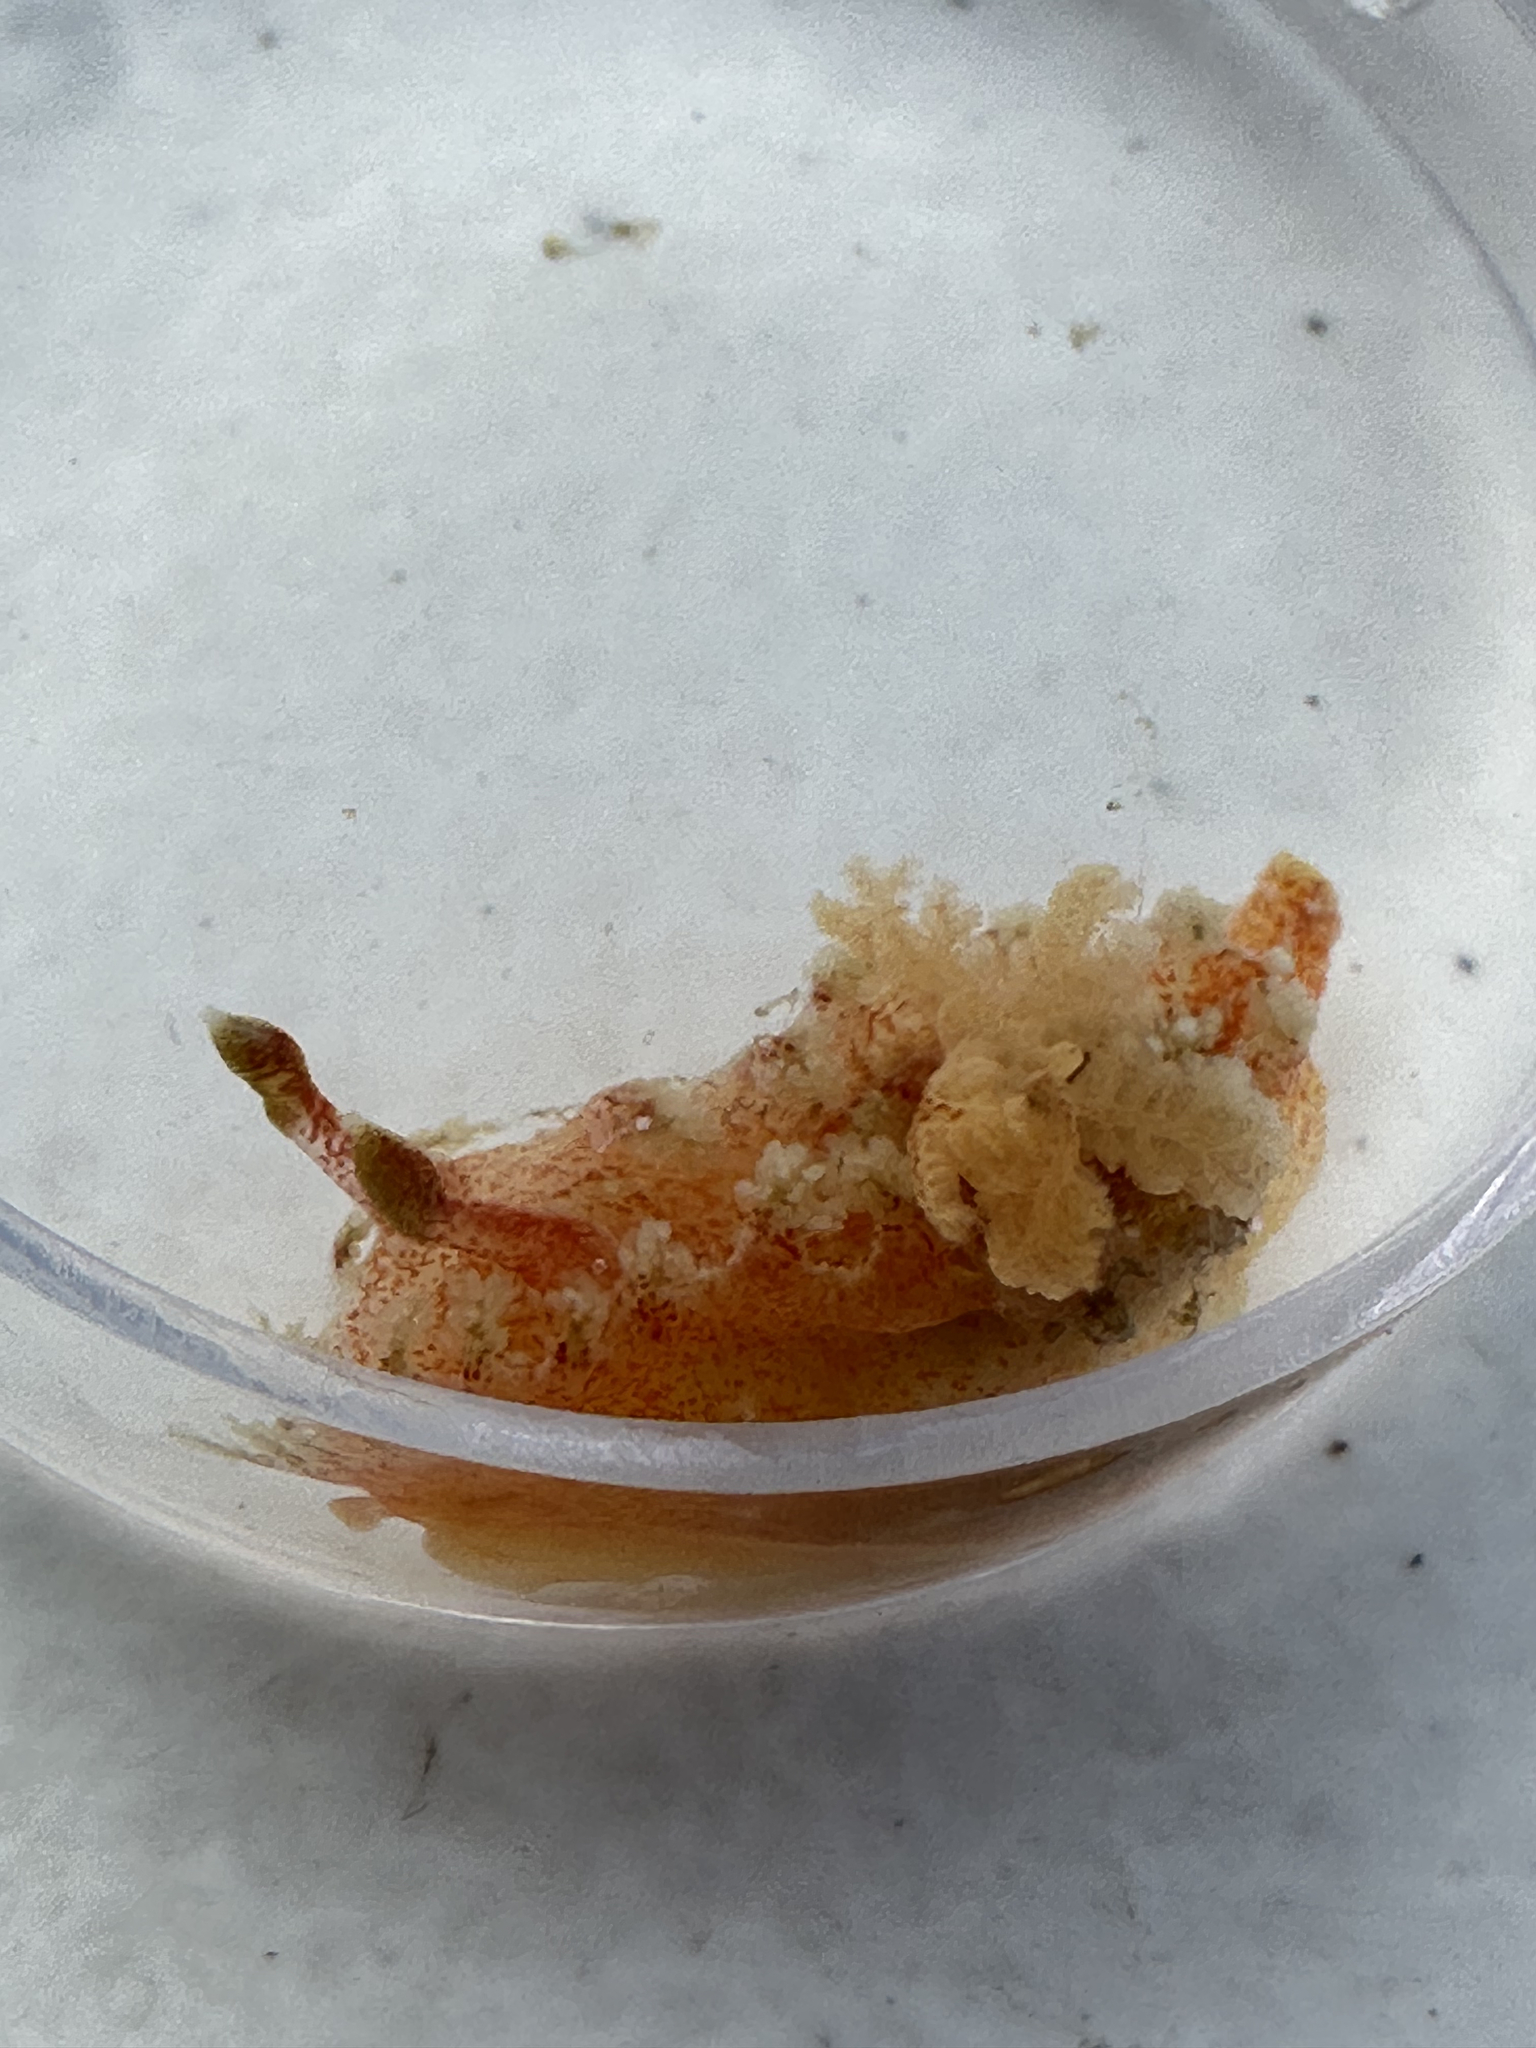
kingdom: Animalia
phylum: Mollusca
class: Gastropoda
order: Nudibranchia
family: Polyceridae
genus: Kaloplocamus
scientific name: Kaloplocamus ramosus
